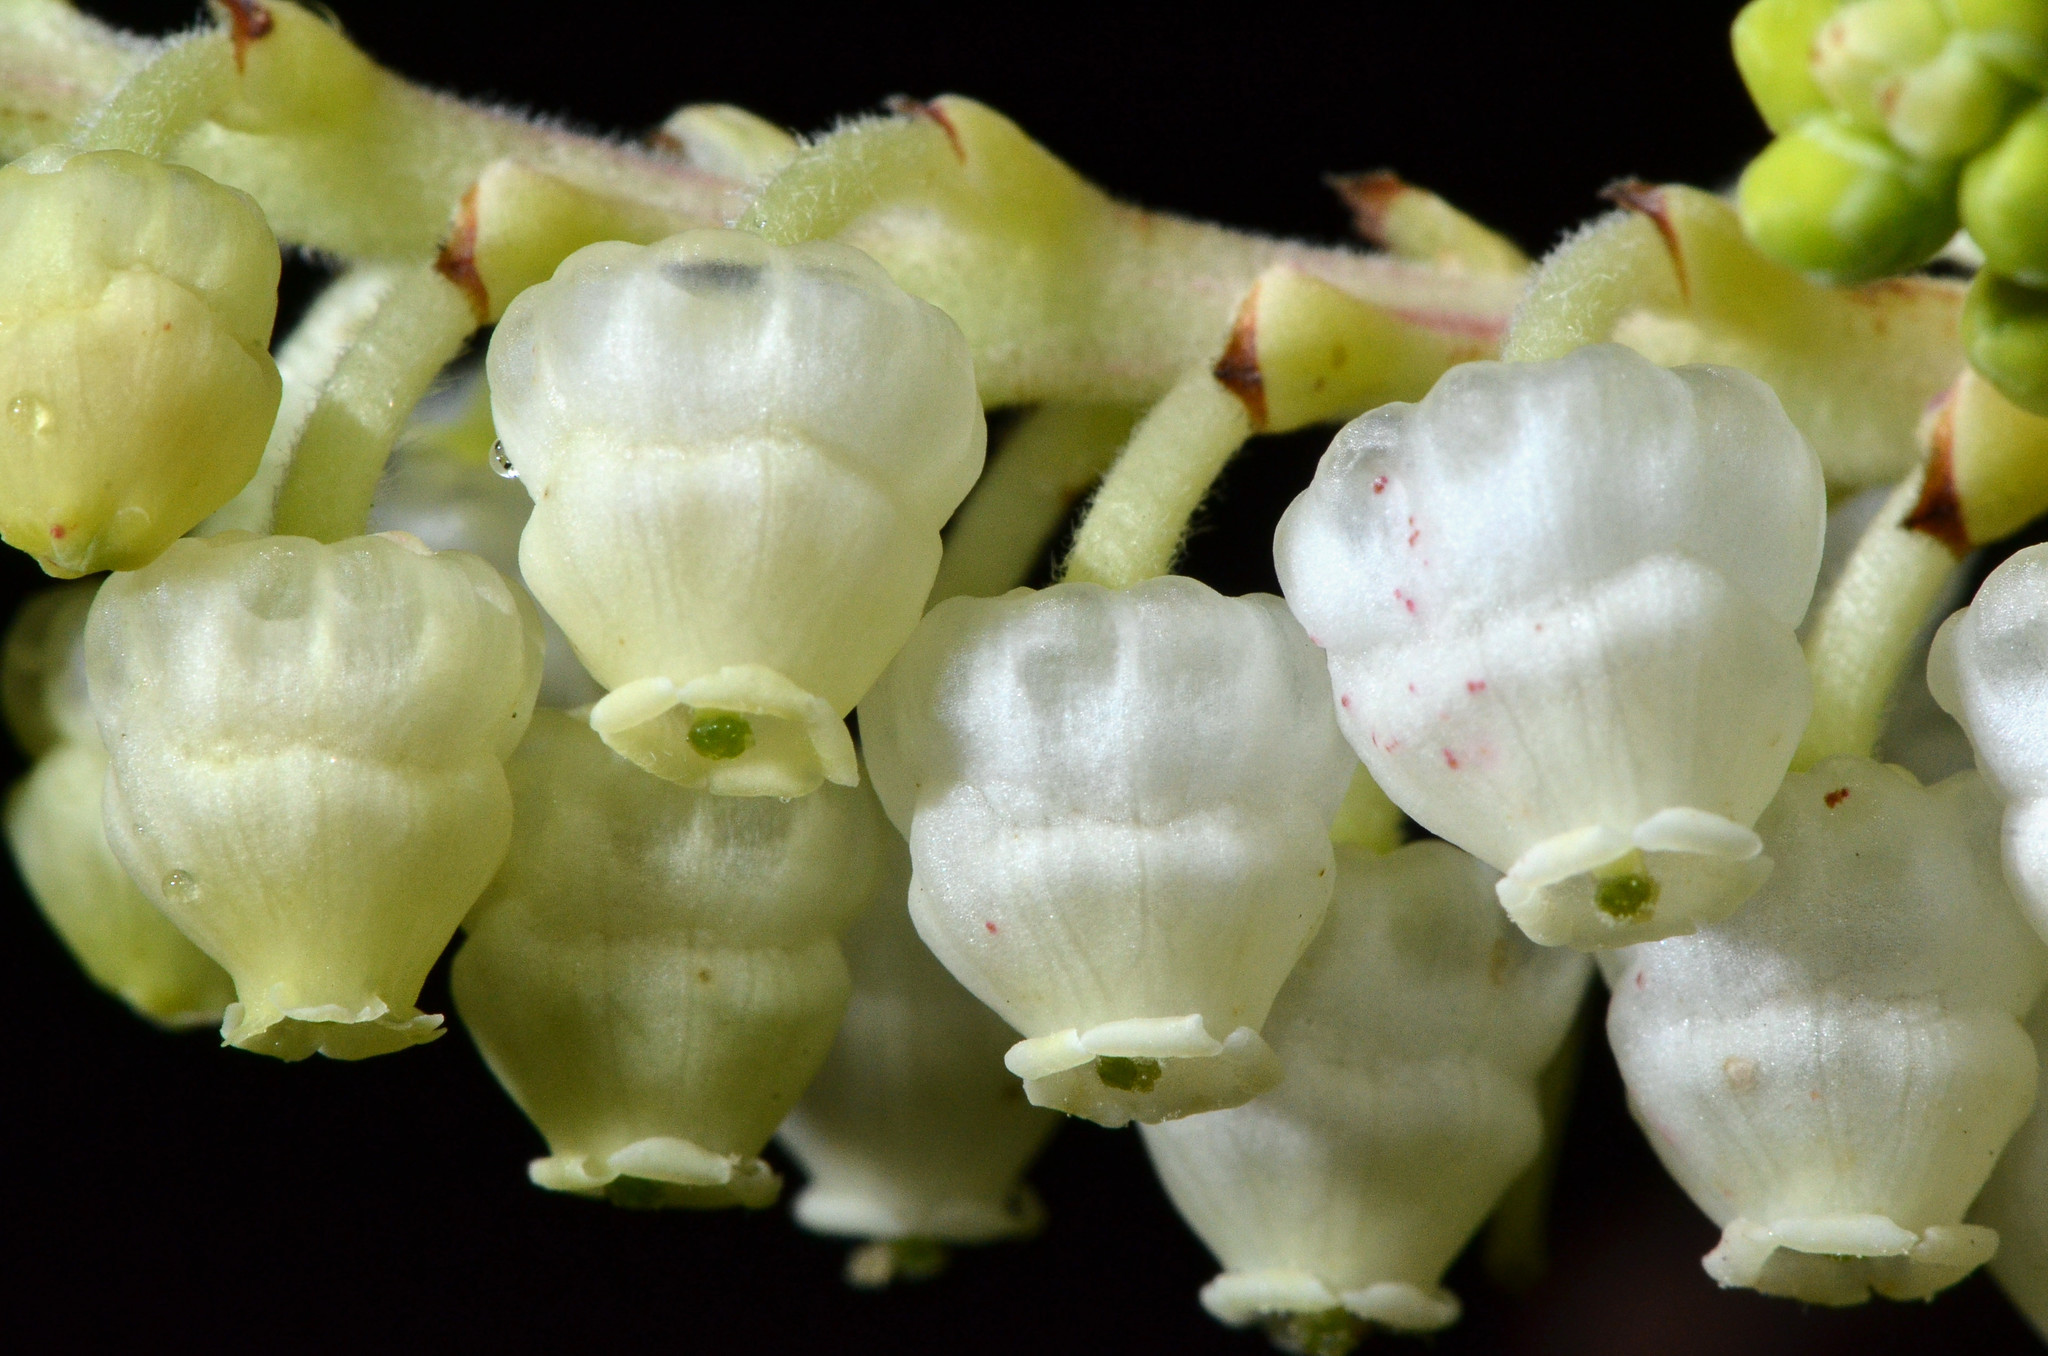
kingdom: Plantae
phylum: Tracheophyta
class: Magnoliopsida
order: Ericales
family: Ericaceae
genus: Arbutus
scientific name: Arbutus menziesii
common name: Pacific madrone
